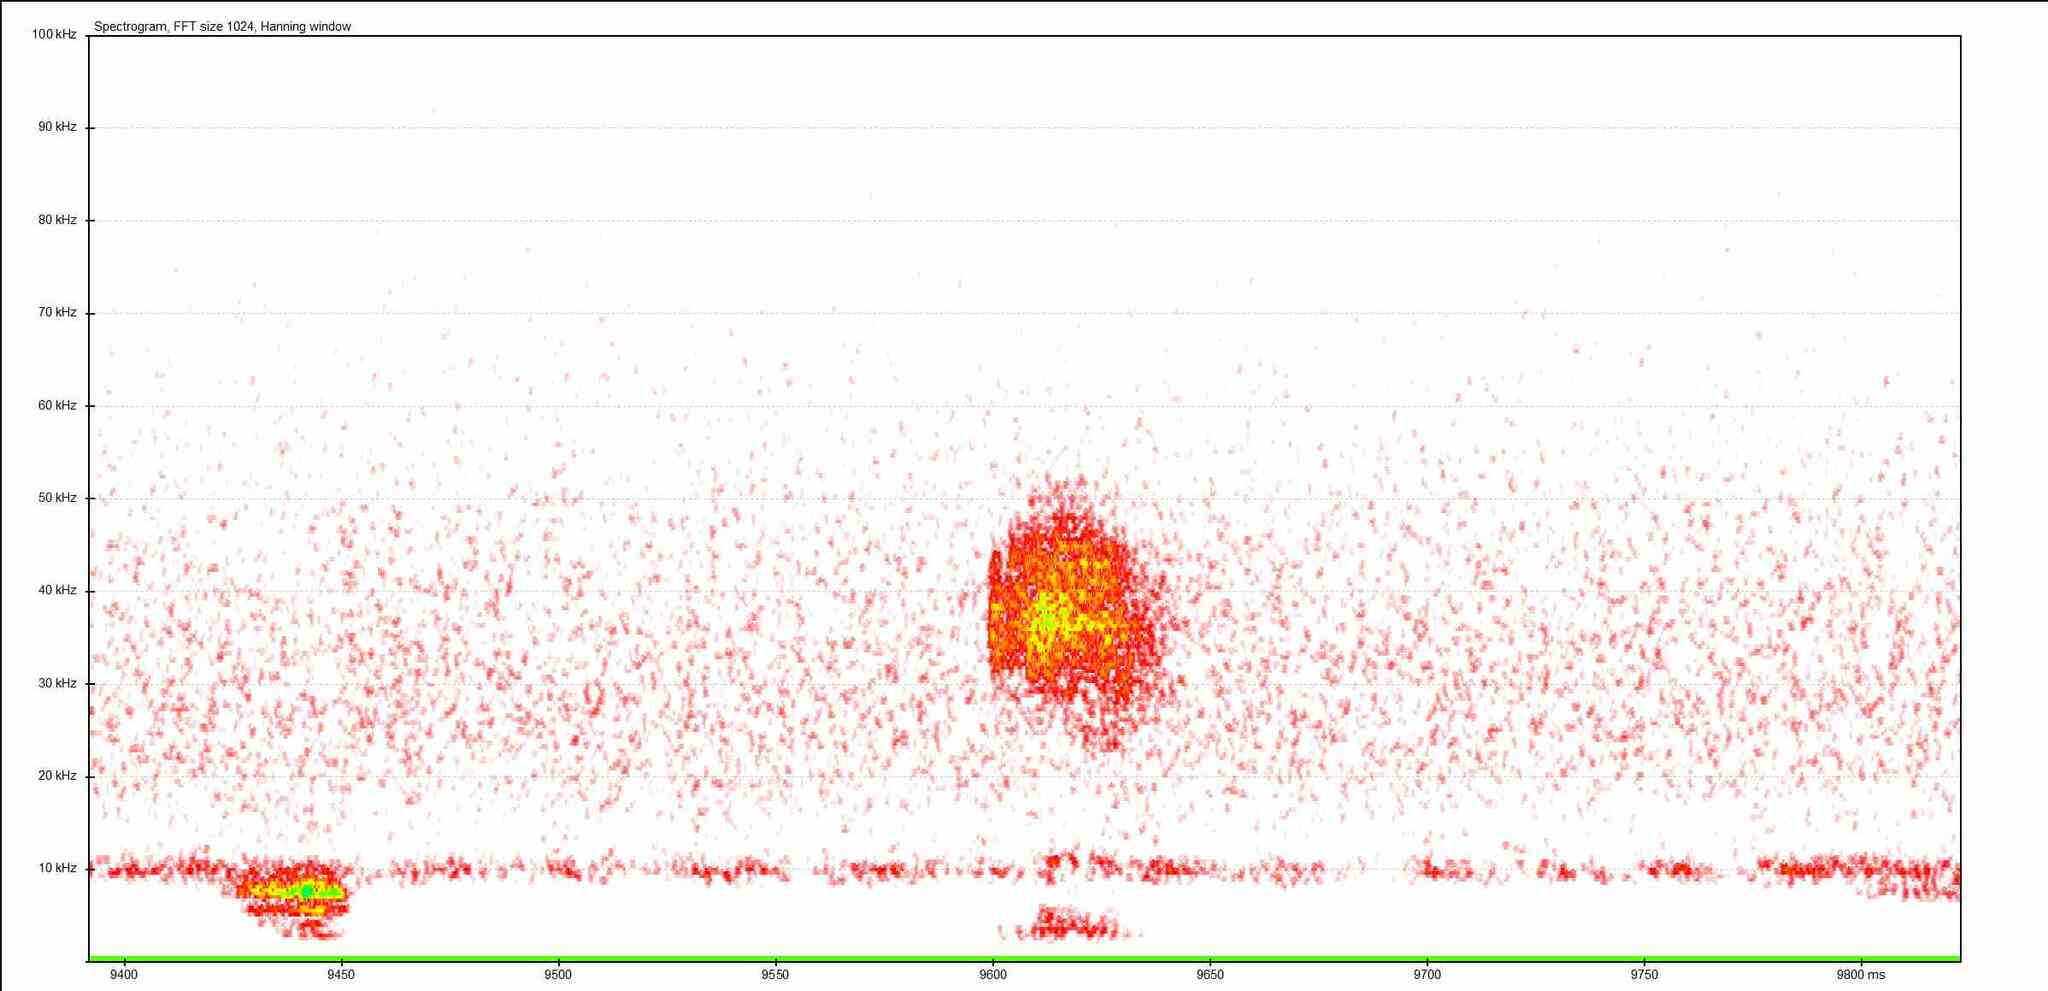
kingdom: Animalia
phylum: Arthropoda
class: Insecta
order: Orthoptera
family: Tettigoniidae
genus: Leptophyes
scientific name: Leptophyes punctatissima
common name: Speckled bush-cricket
